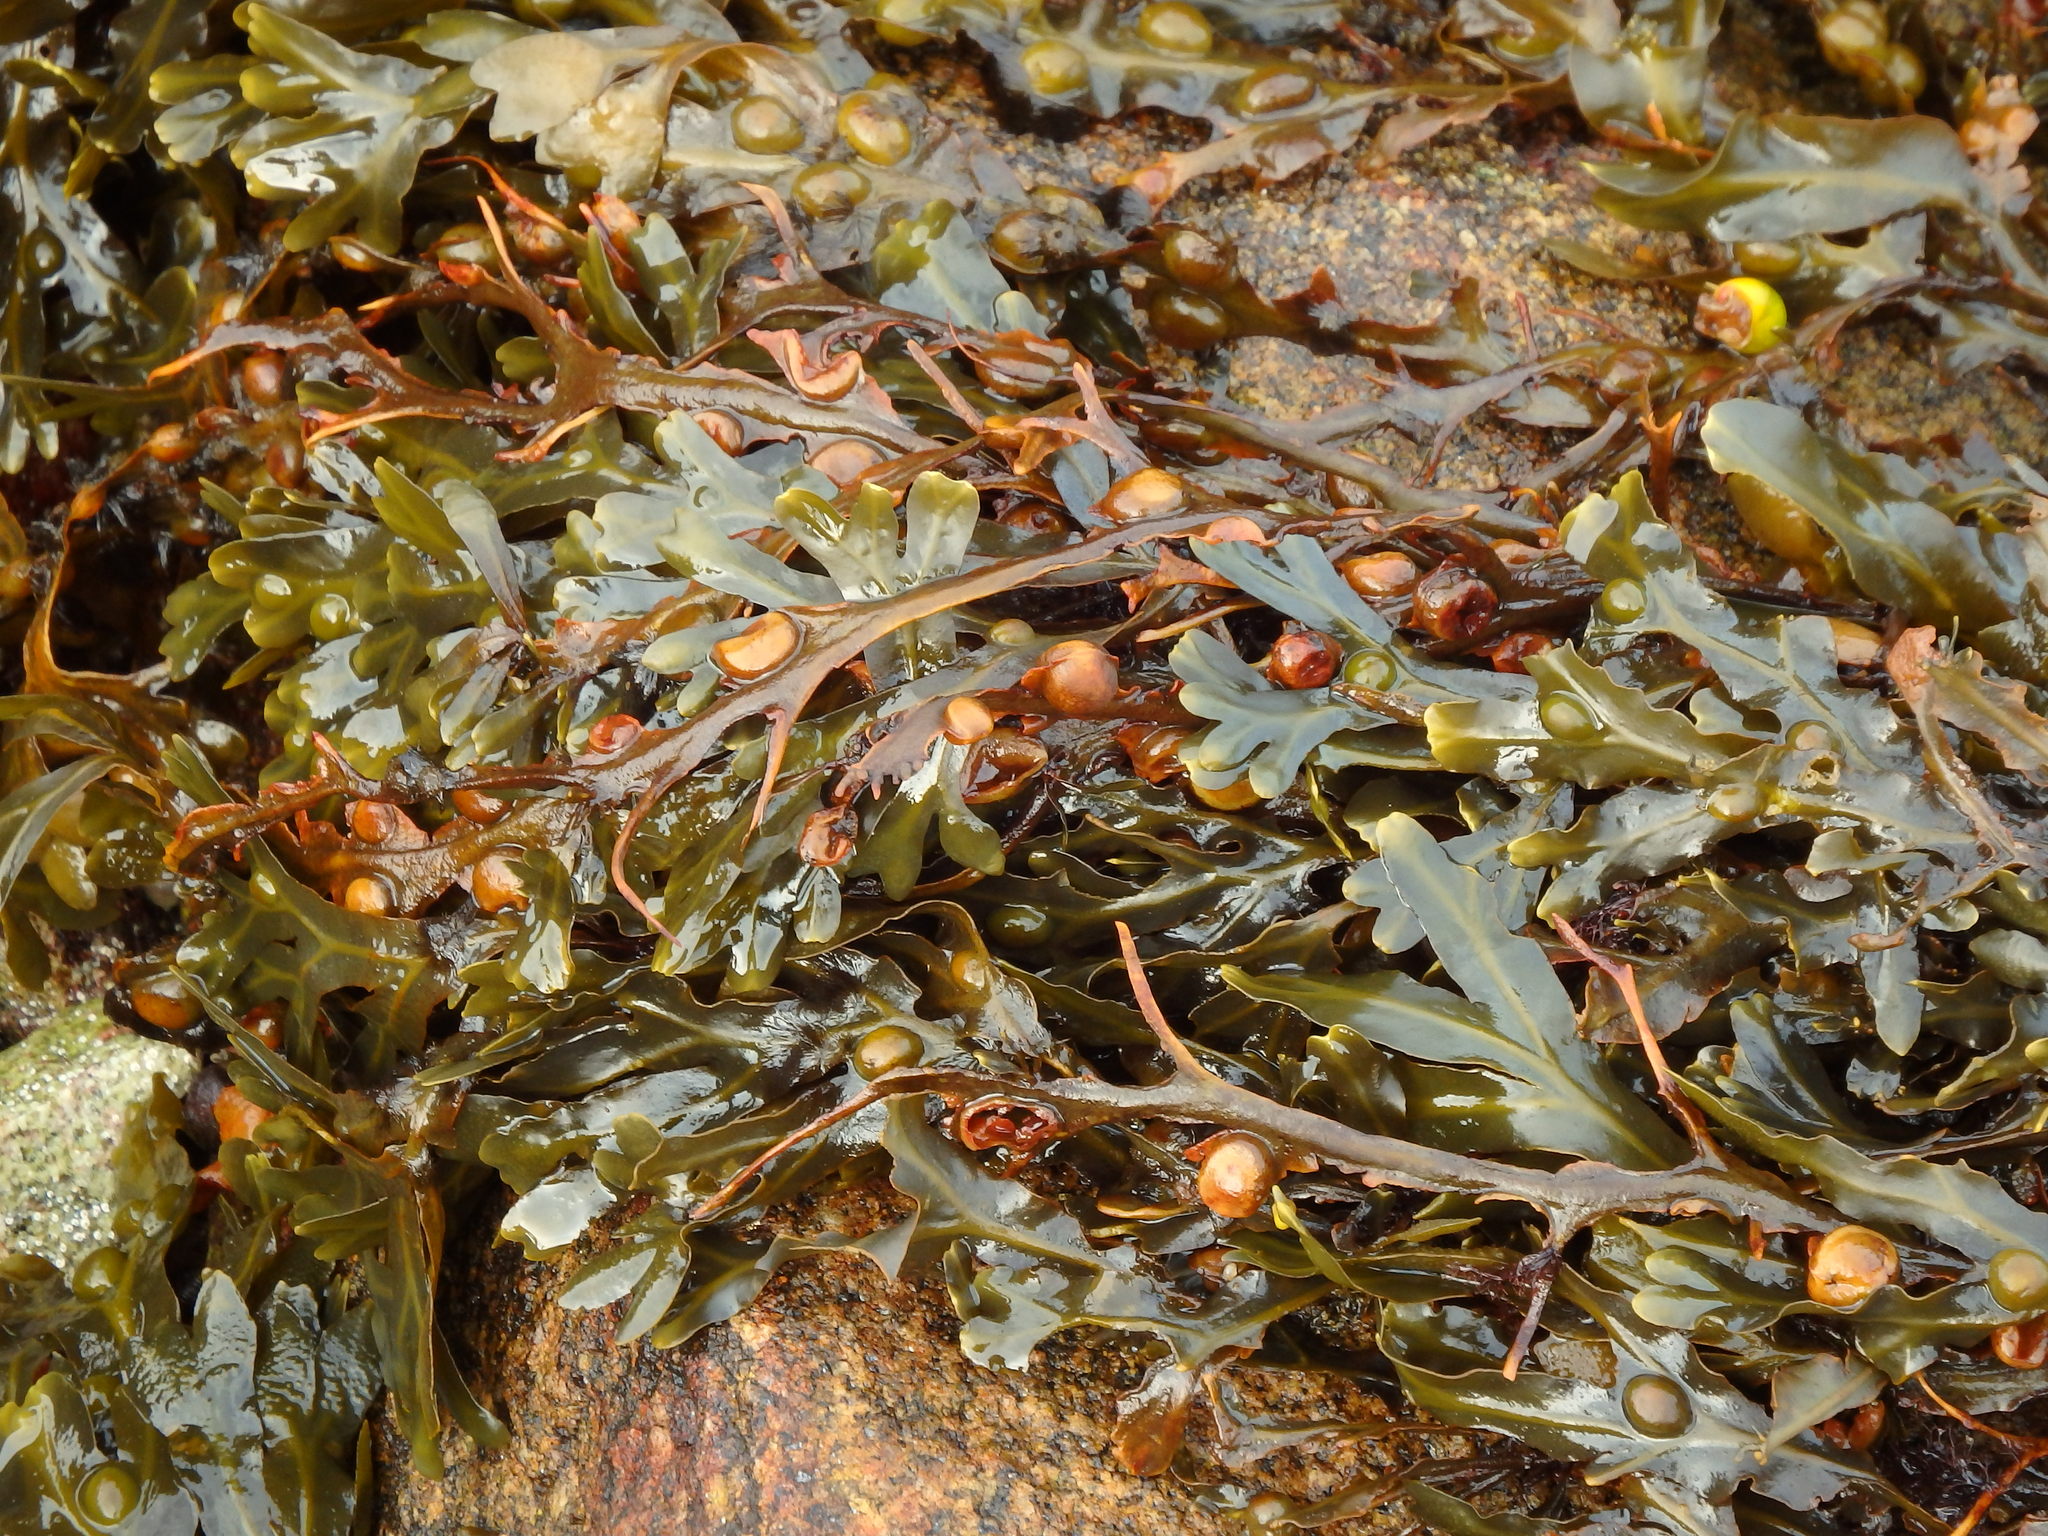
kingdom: Chromista
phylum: Ochrophyta
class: Phaeophyceae
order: Fucales
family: Fucaceae
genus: Fucus
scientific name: Fucus vesiculosus
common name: Bladder wrack
